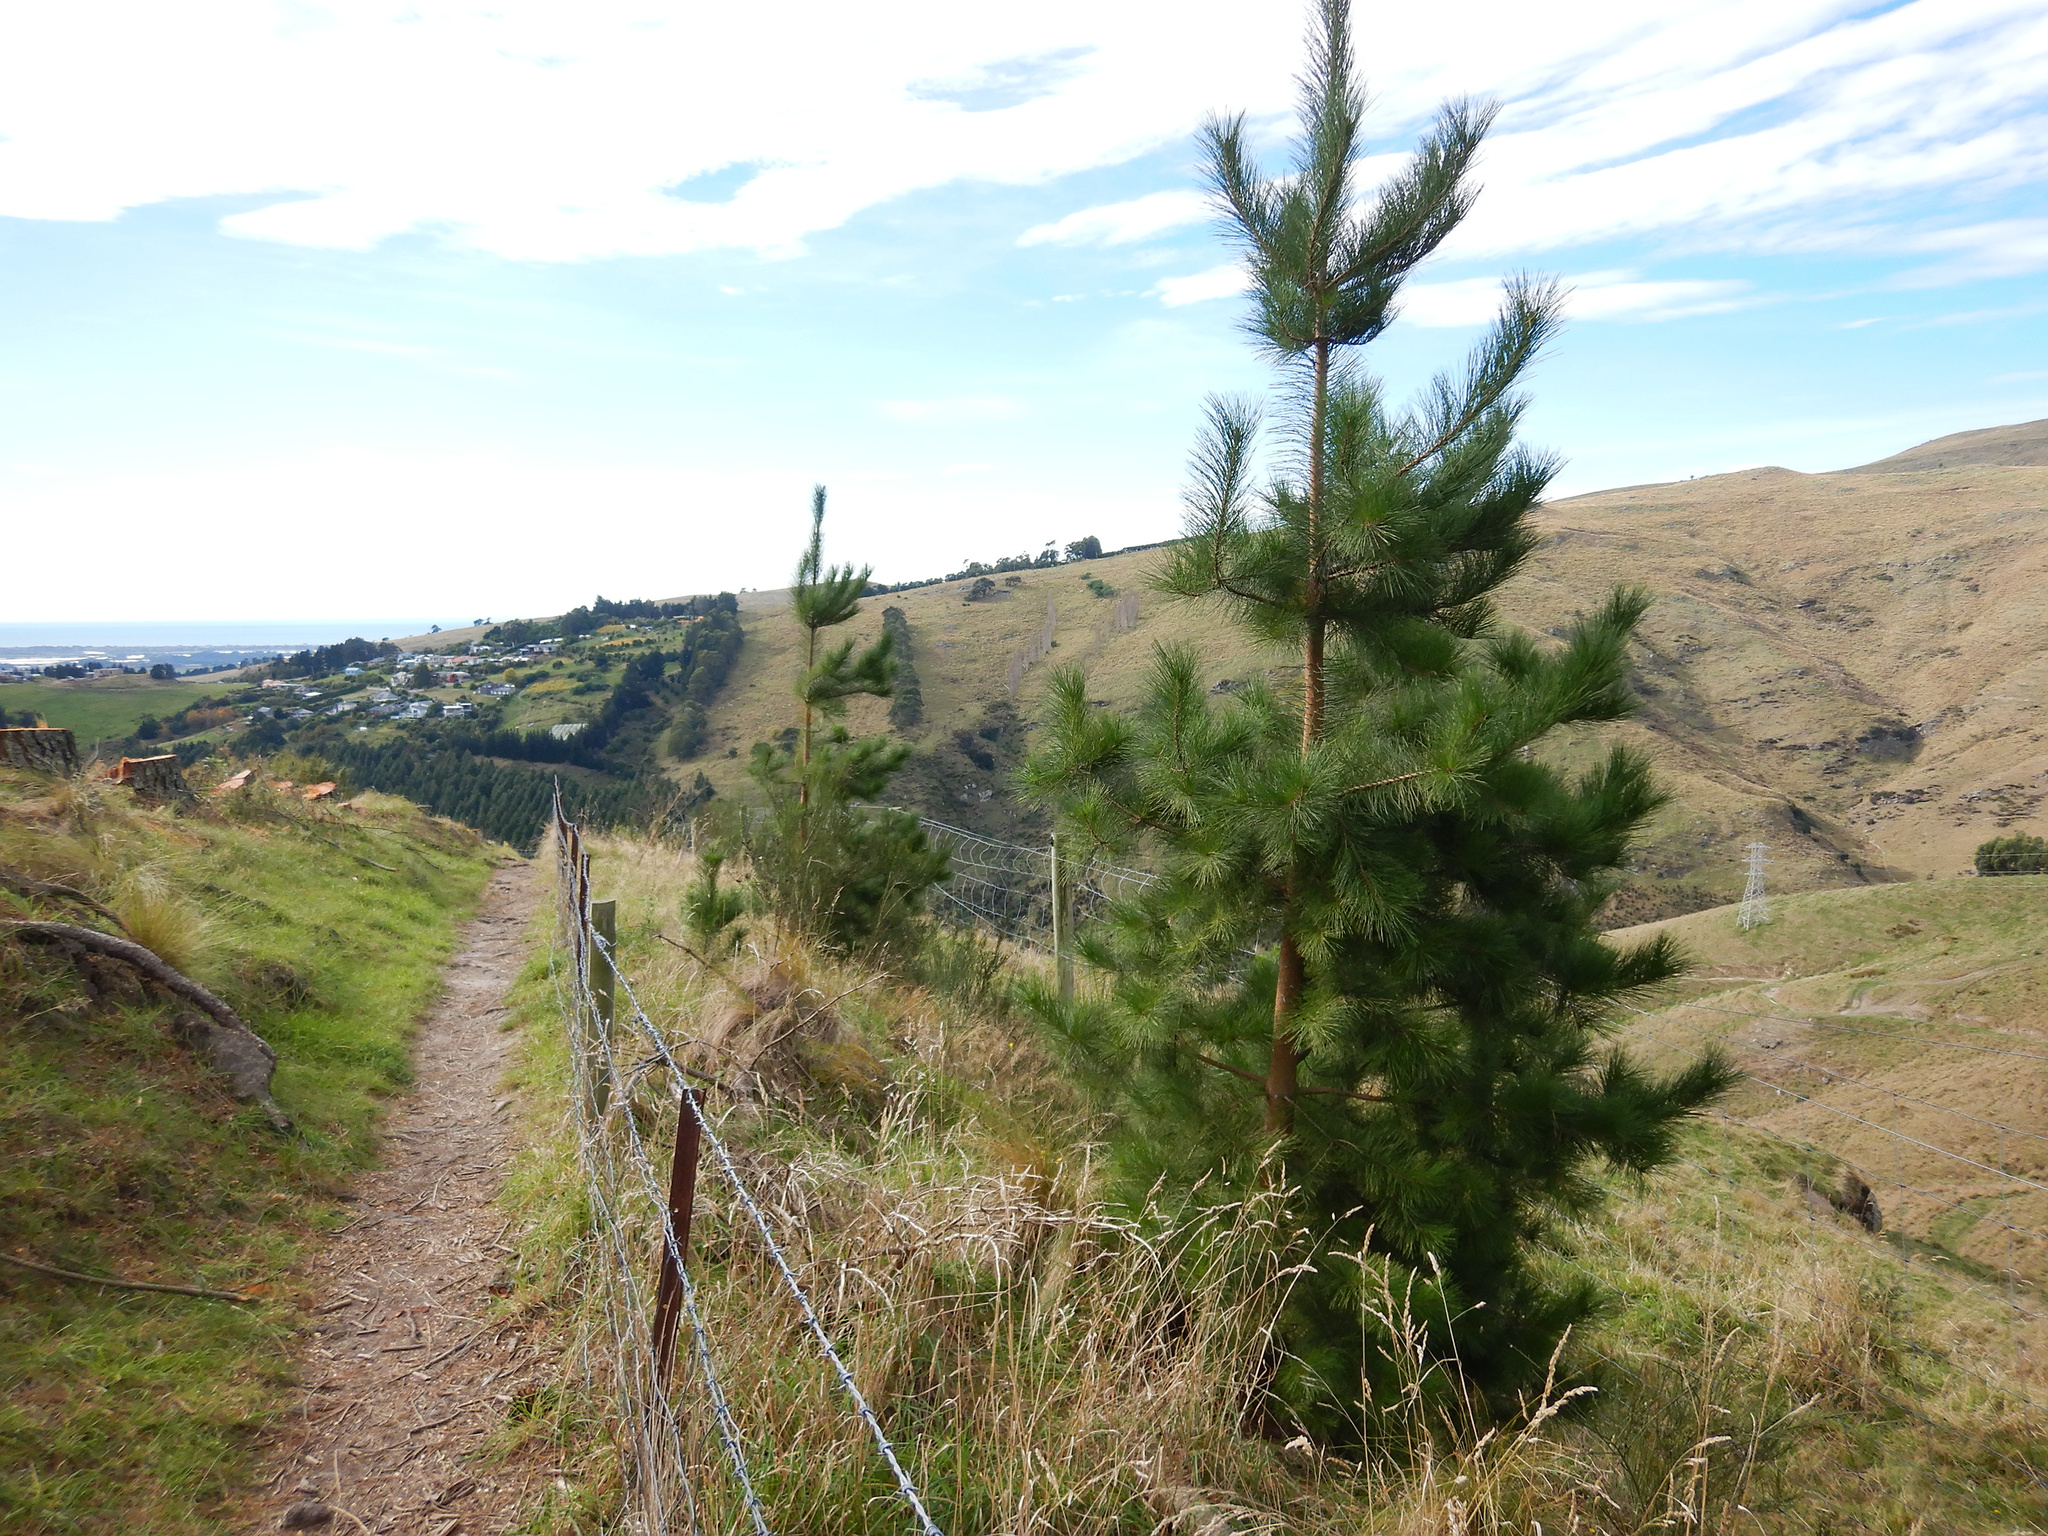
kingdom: Plantae
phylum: Tracheophyta
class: Pinopsida
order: Pinales
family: Pinaceae
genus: Pinus
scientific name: Pinus radiata
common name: Monterey pine
